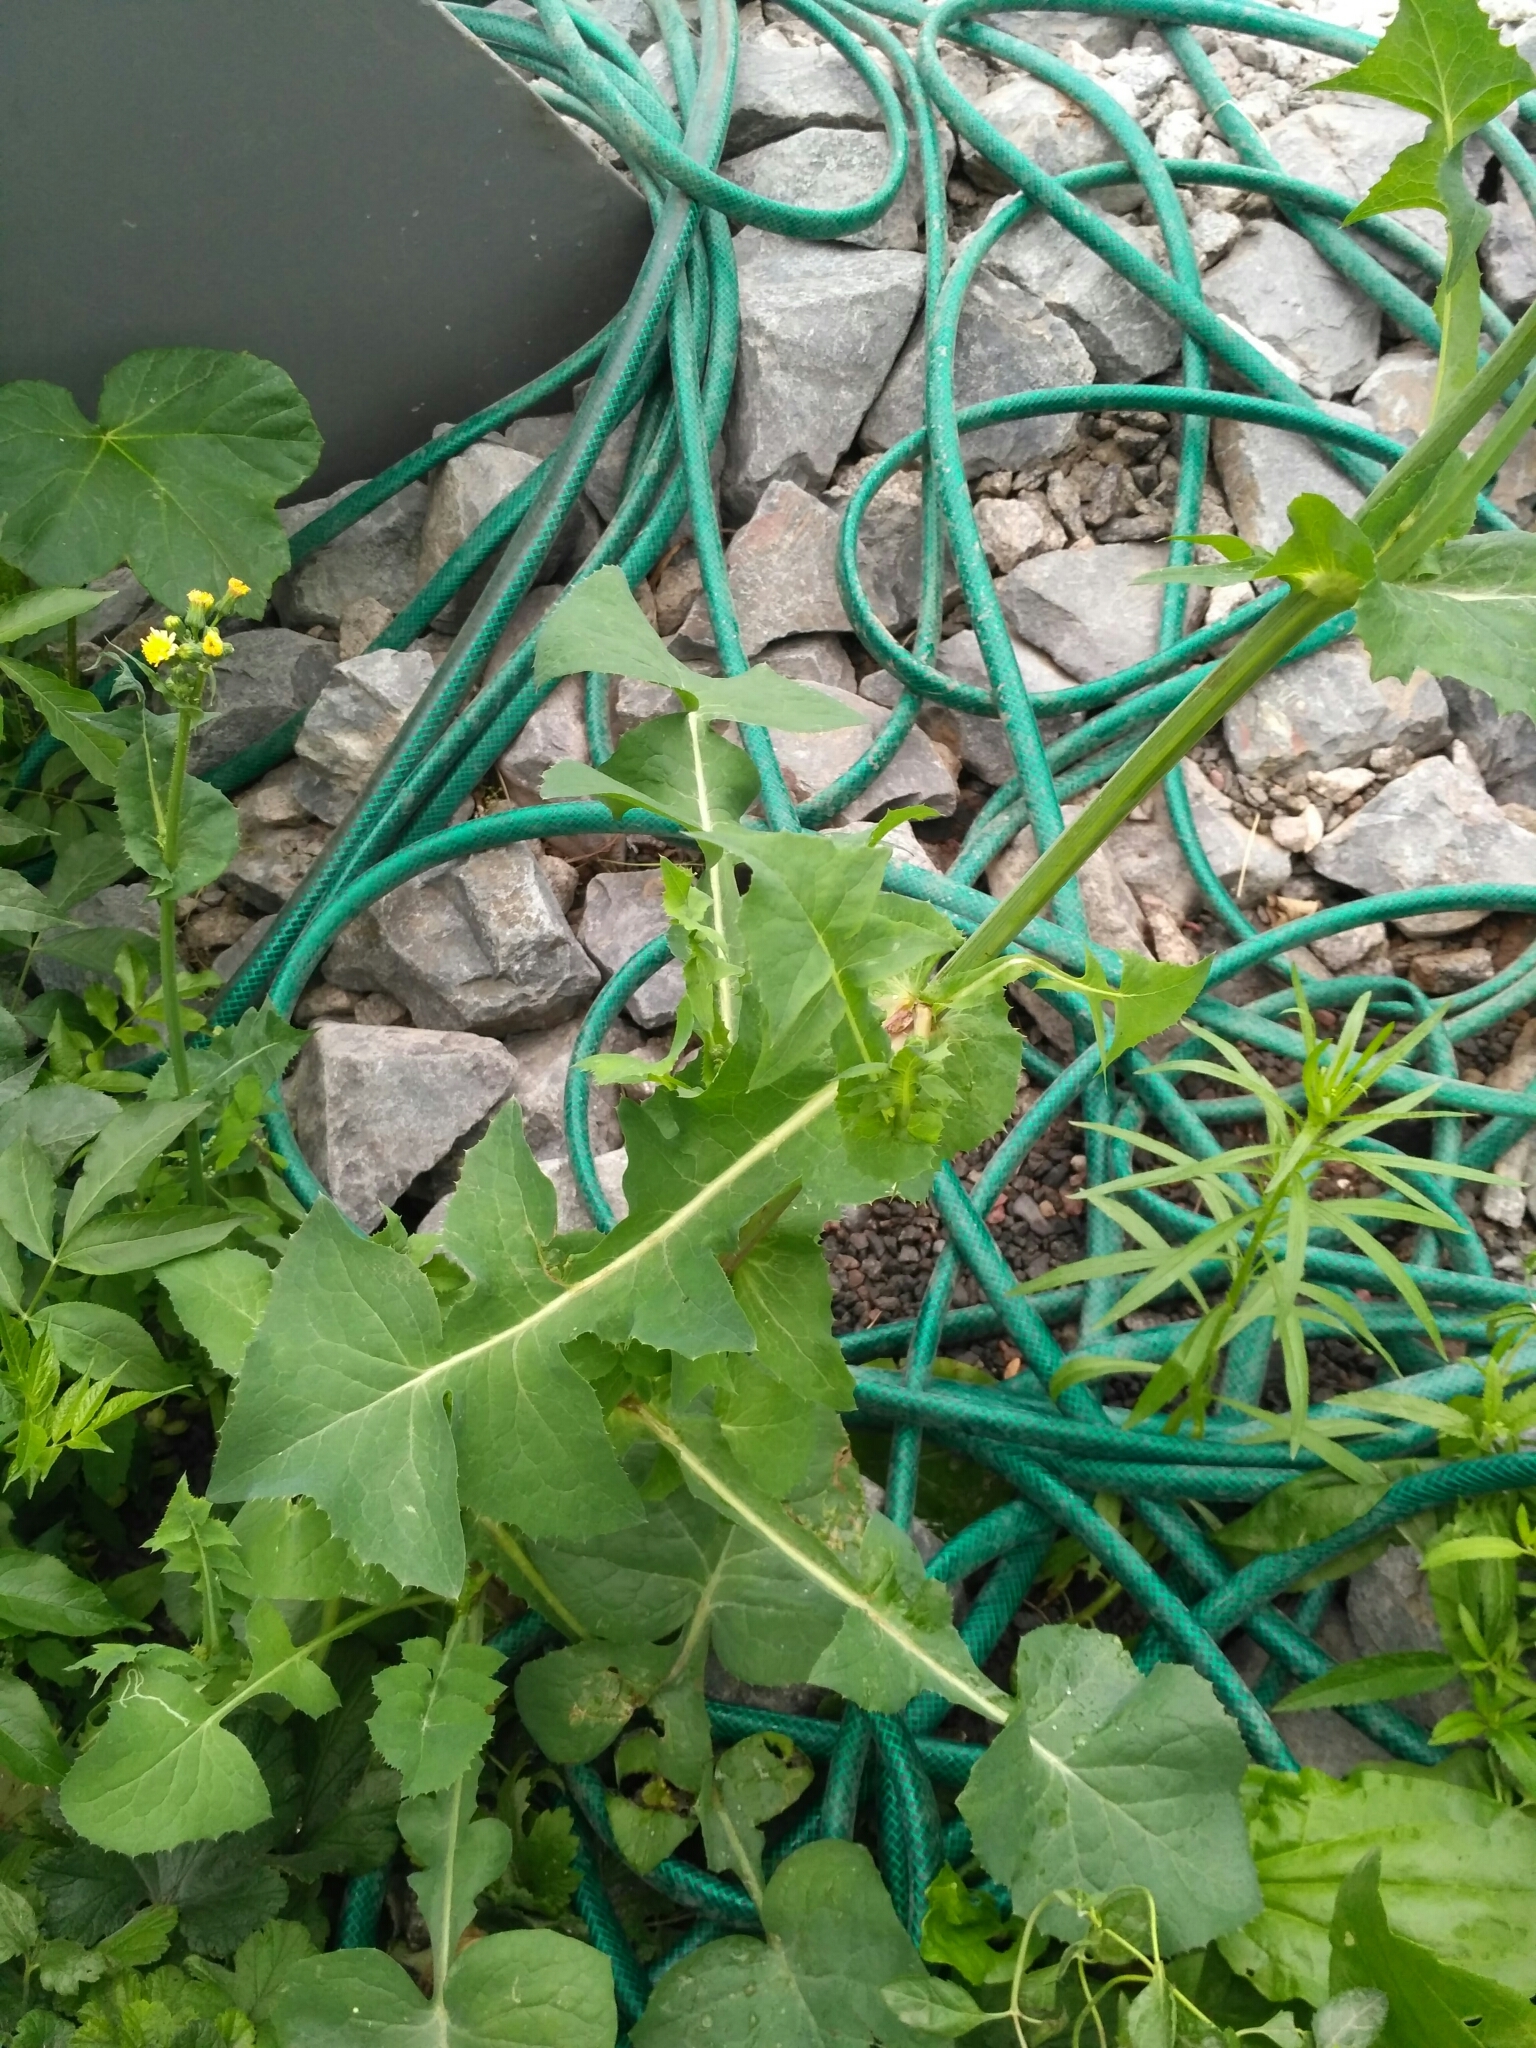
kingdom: Plantae
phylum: Tracheophyta
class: Magnoliopsida
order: Asterales
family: Asteraceae
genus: Sonchus
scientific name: Sonchus oleraceus
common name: Common sowthistle
